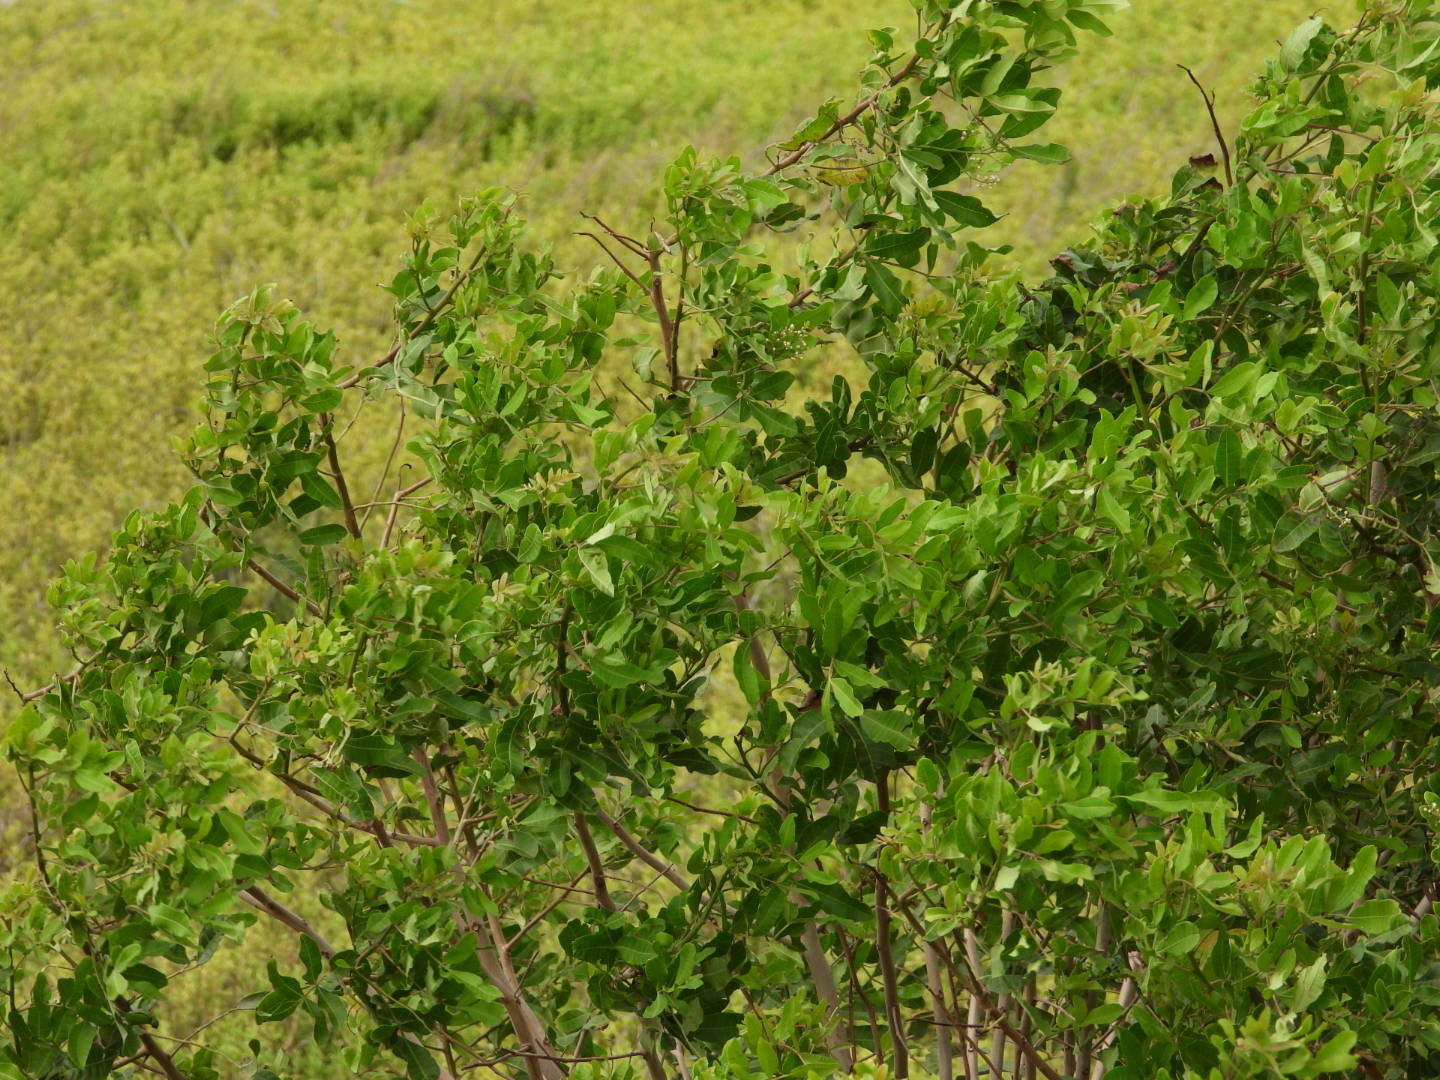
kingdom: Plantae
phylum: Tracheophyta
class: Magnoliopsida
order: Sapindales
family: Anacardiaceae
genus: Schinus
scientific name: Schinus terebinthifolia
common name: Brazilian peppertree
